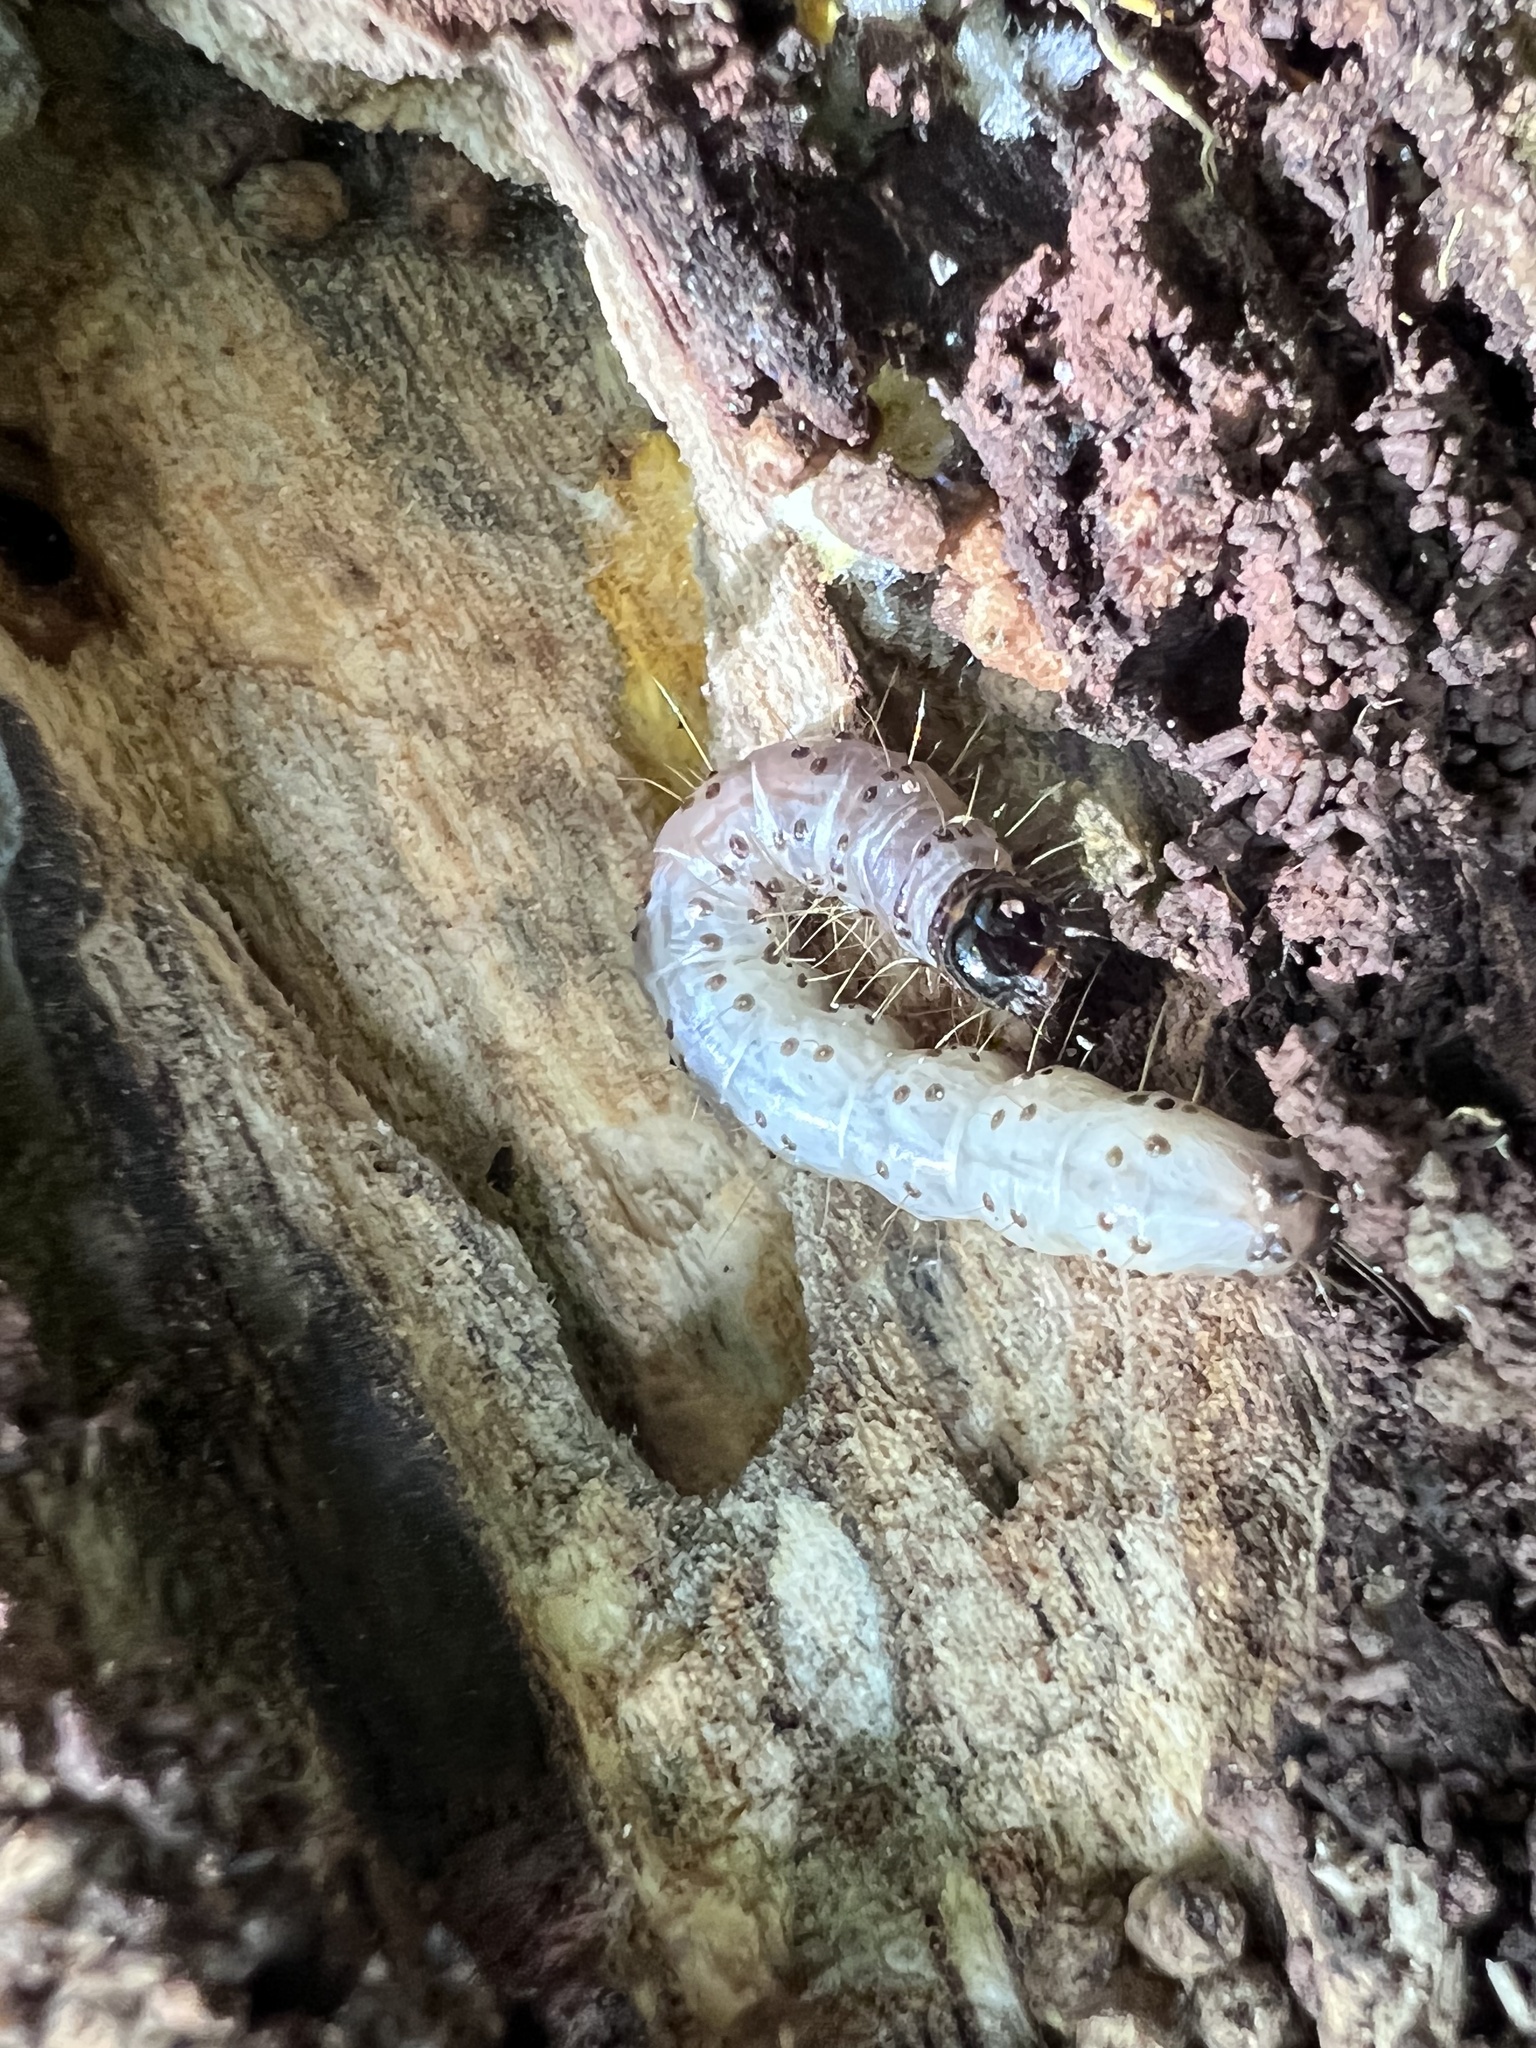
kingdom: Animalia
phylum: Arthropoda
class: Insecta
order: Lepidoptera
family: Erebidae
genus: Scolecocampa
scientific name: Scolecocampa liburna
